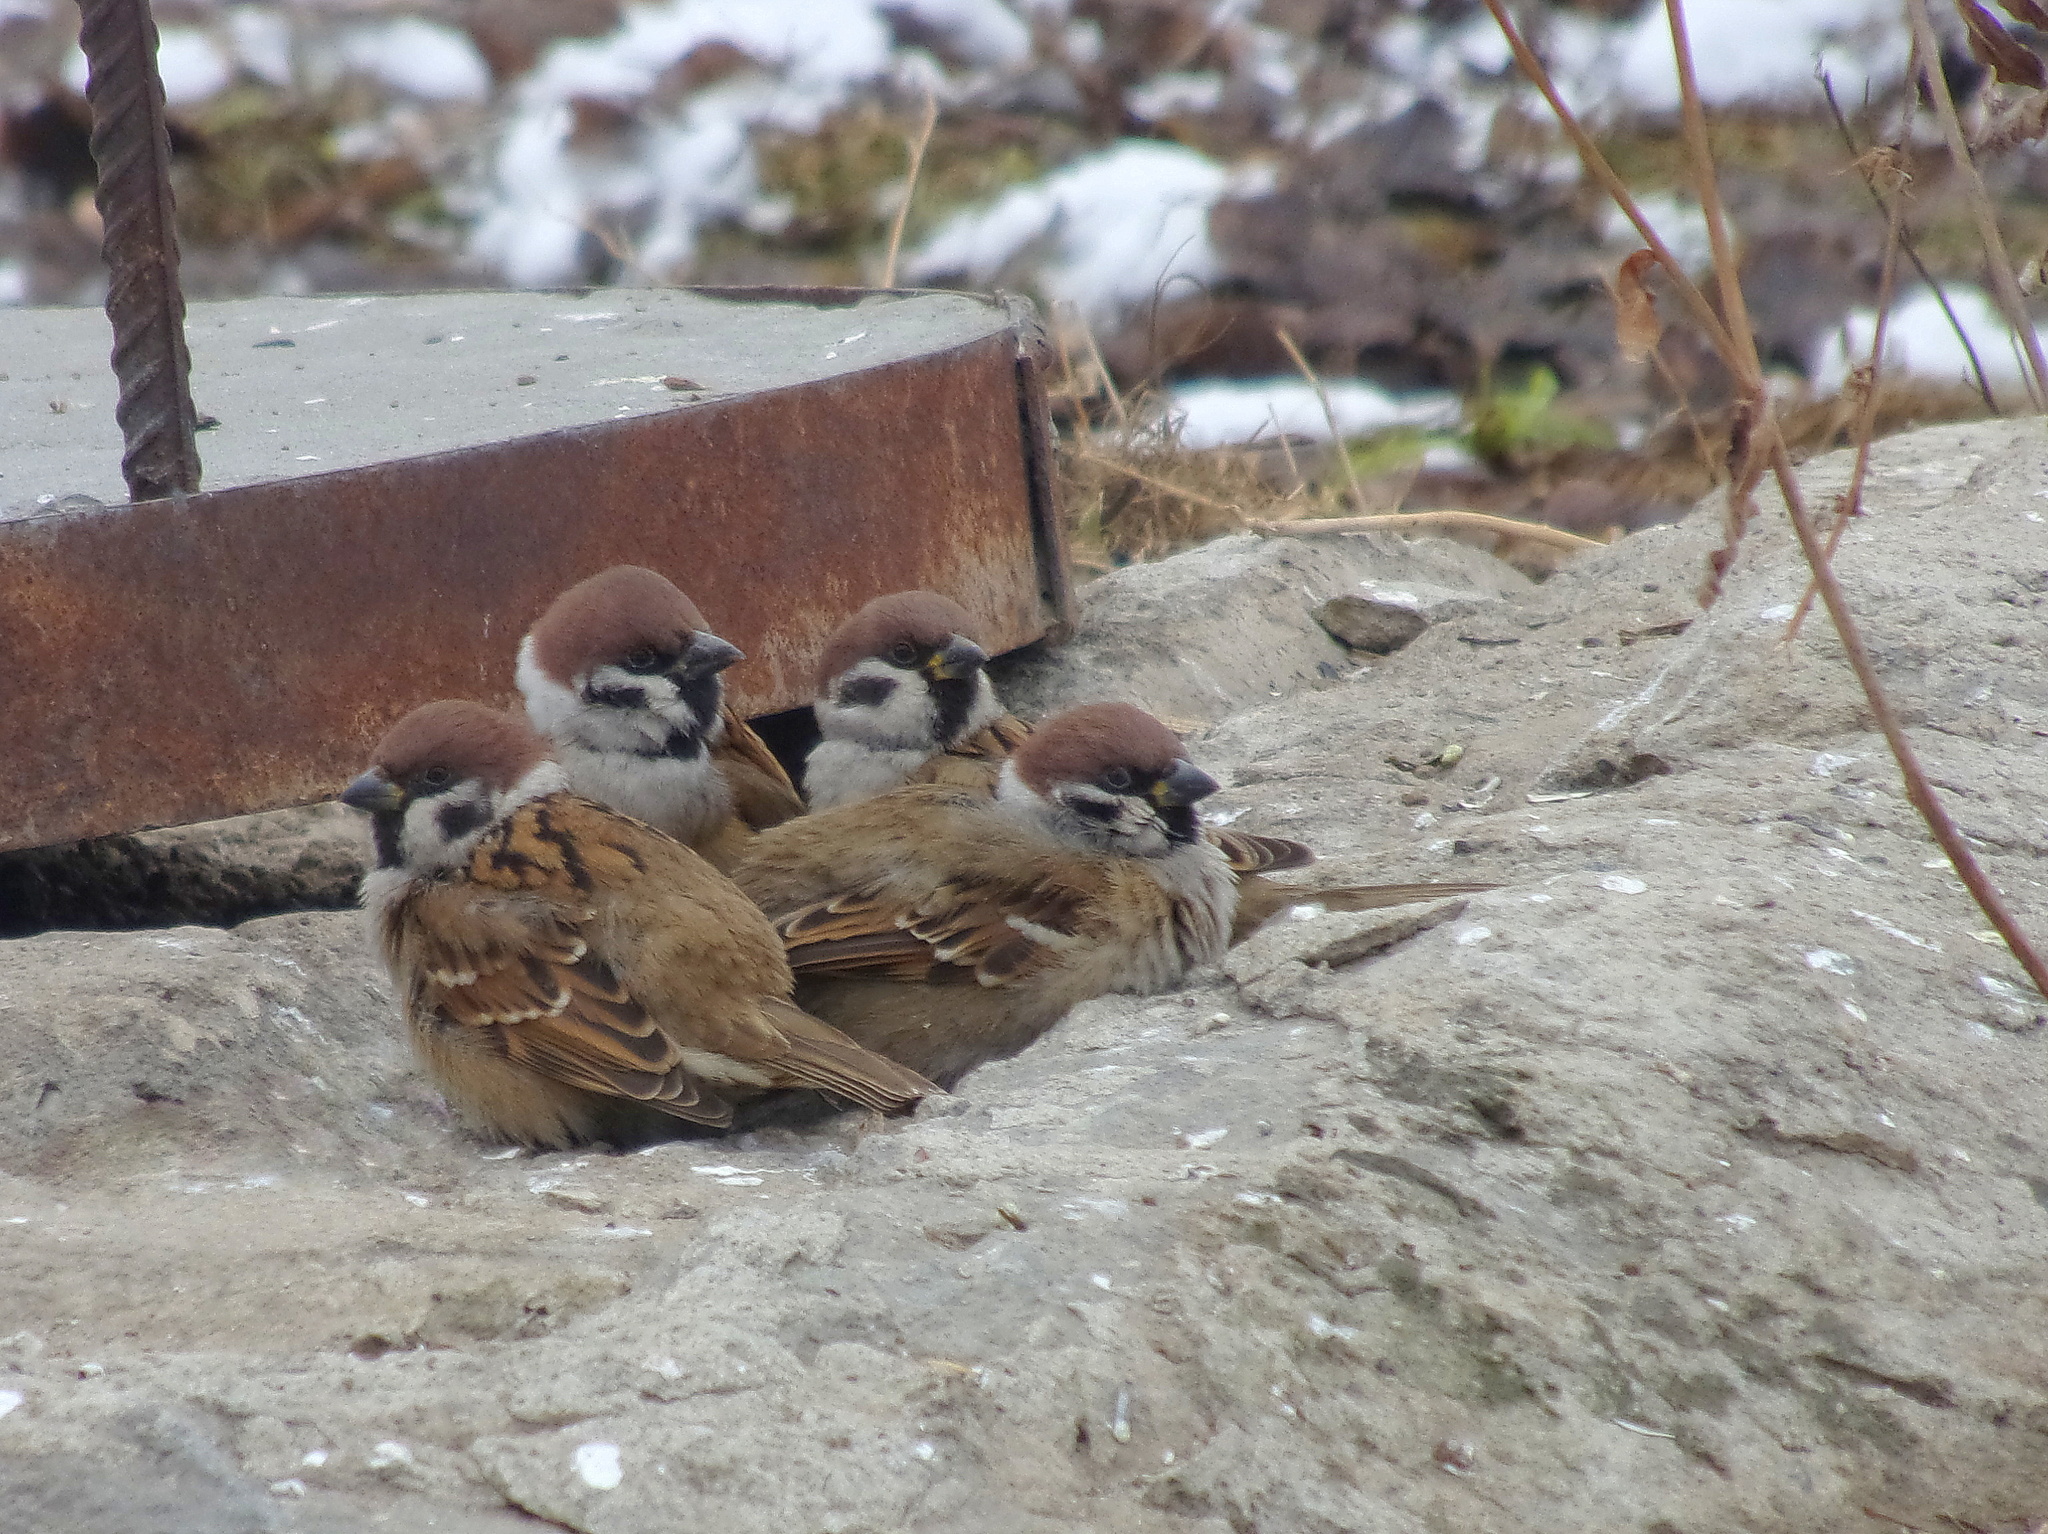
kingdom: Animalia
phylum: Chordata
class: Aves
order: Passeriformes
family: Passeridae
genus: Passer
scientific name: Passer montanus
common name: Eurasian tree sparrow
